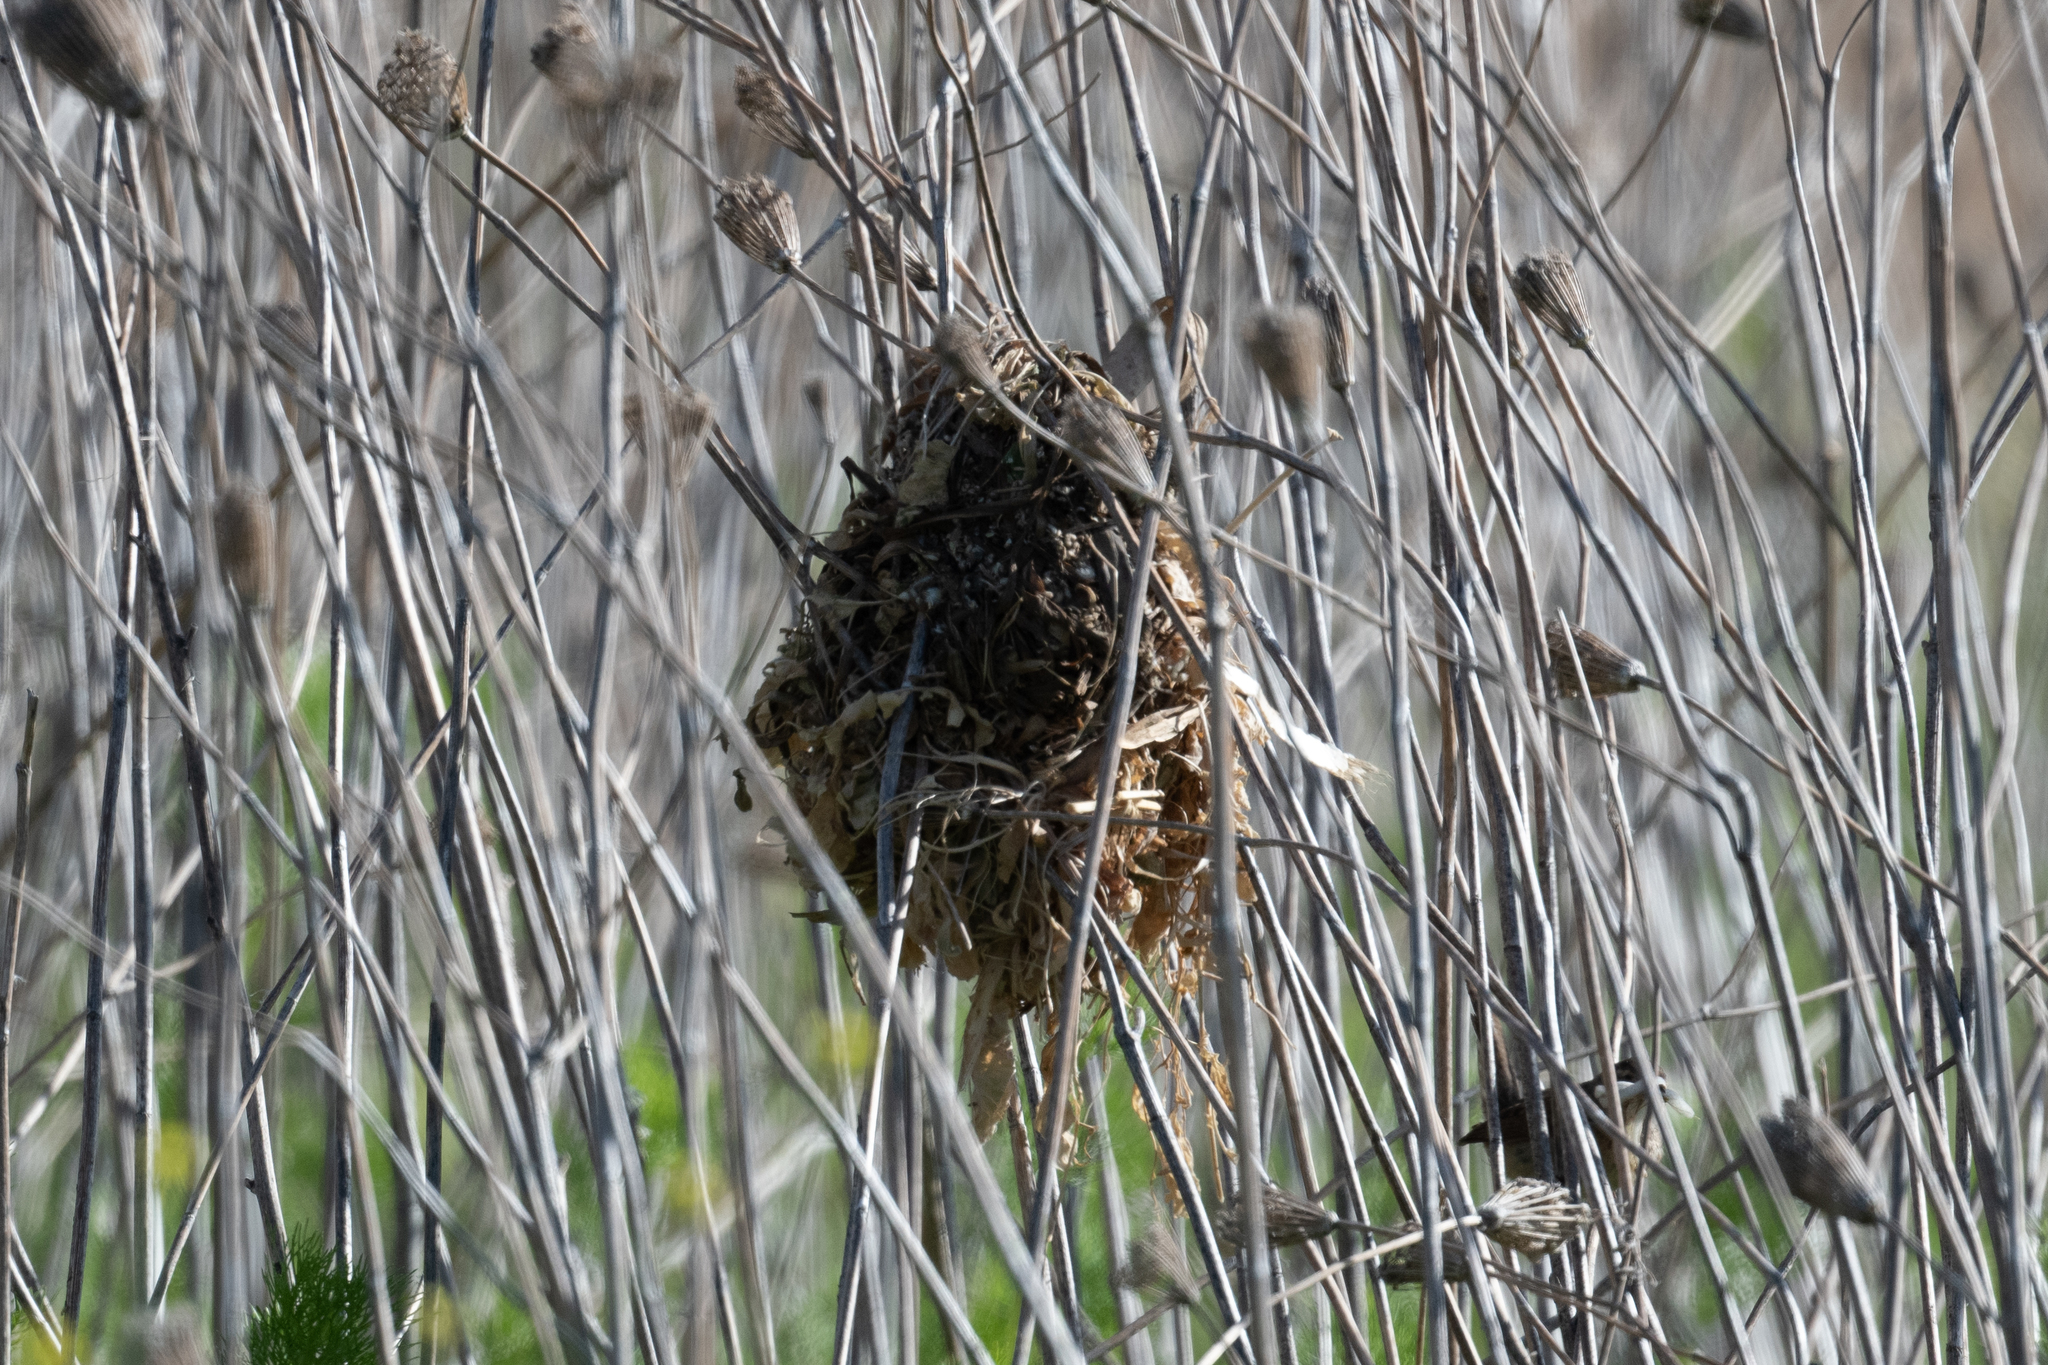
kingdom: Animalia
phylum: Chordata
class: Aves
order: Passeriformes
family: Troglodytidae
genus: Cistothorus
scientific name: Cistothorus palustris
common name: Marsh wren
